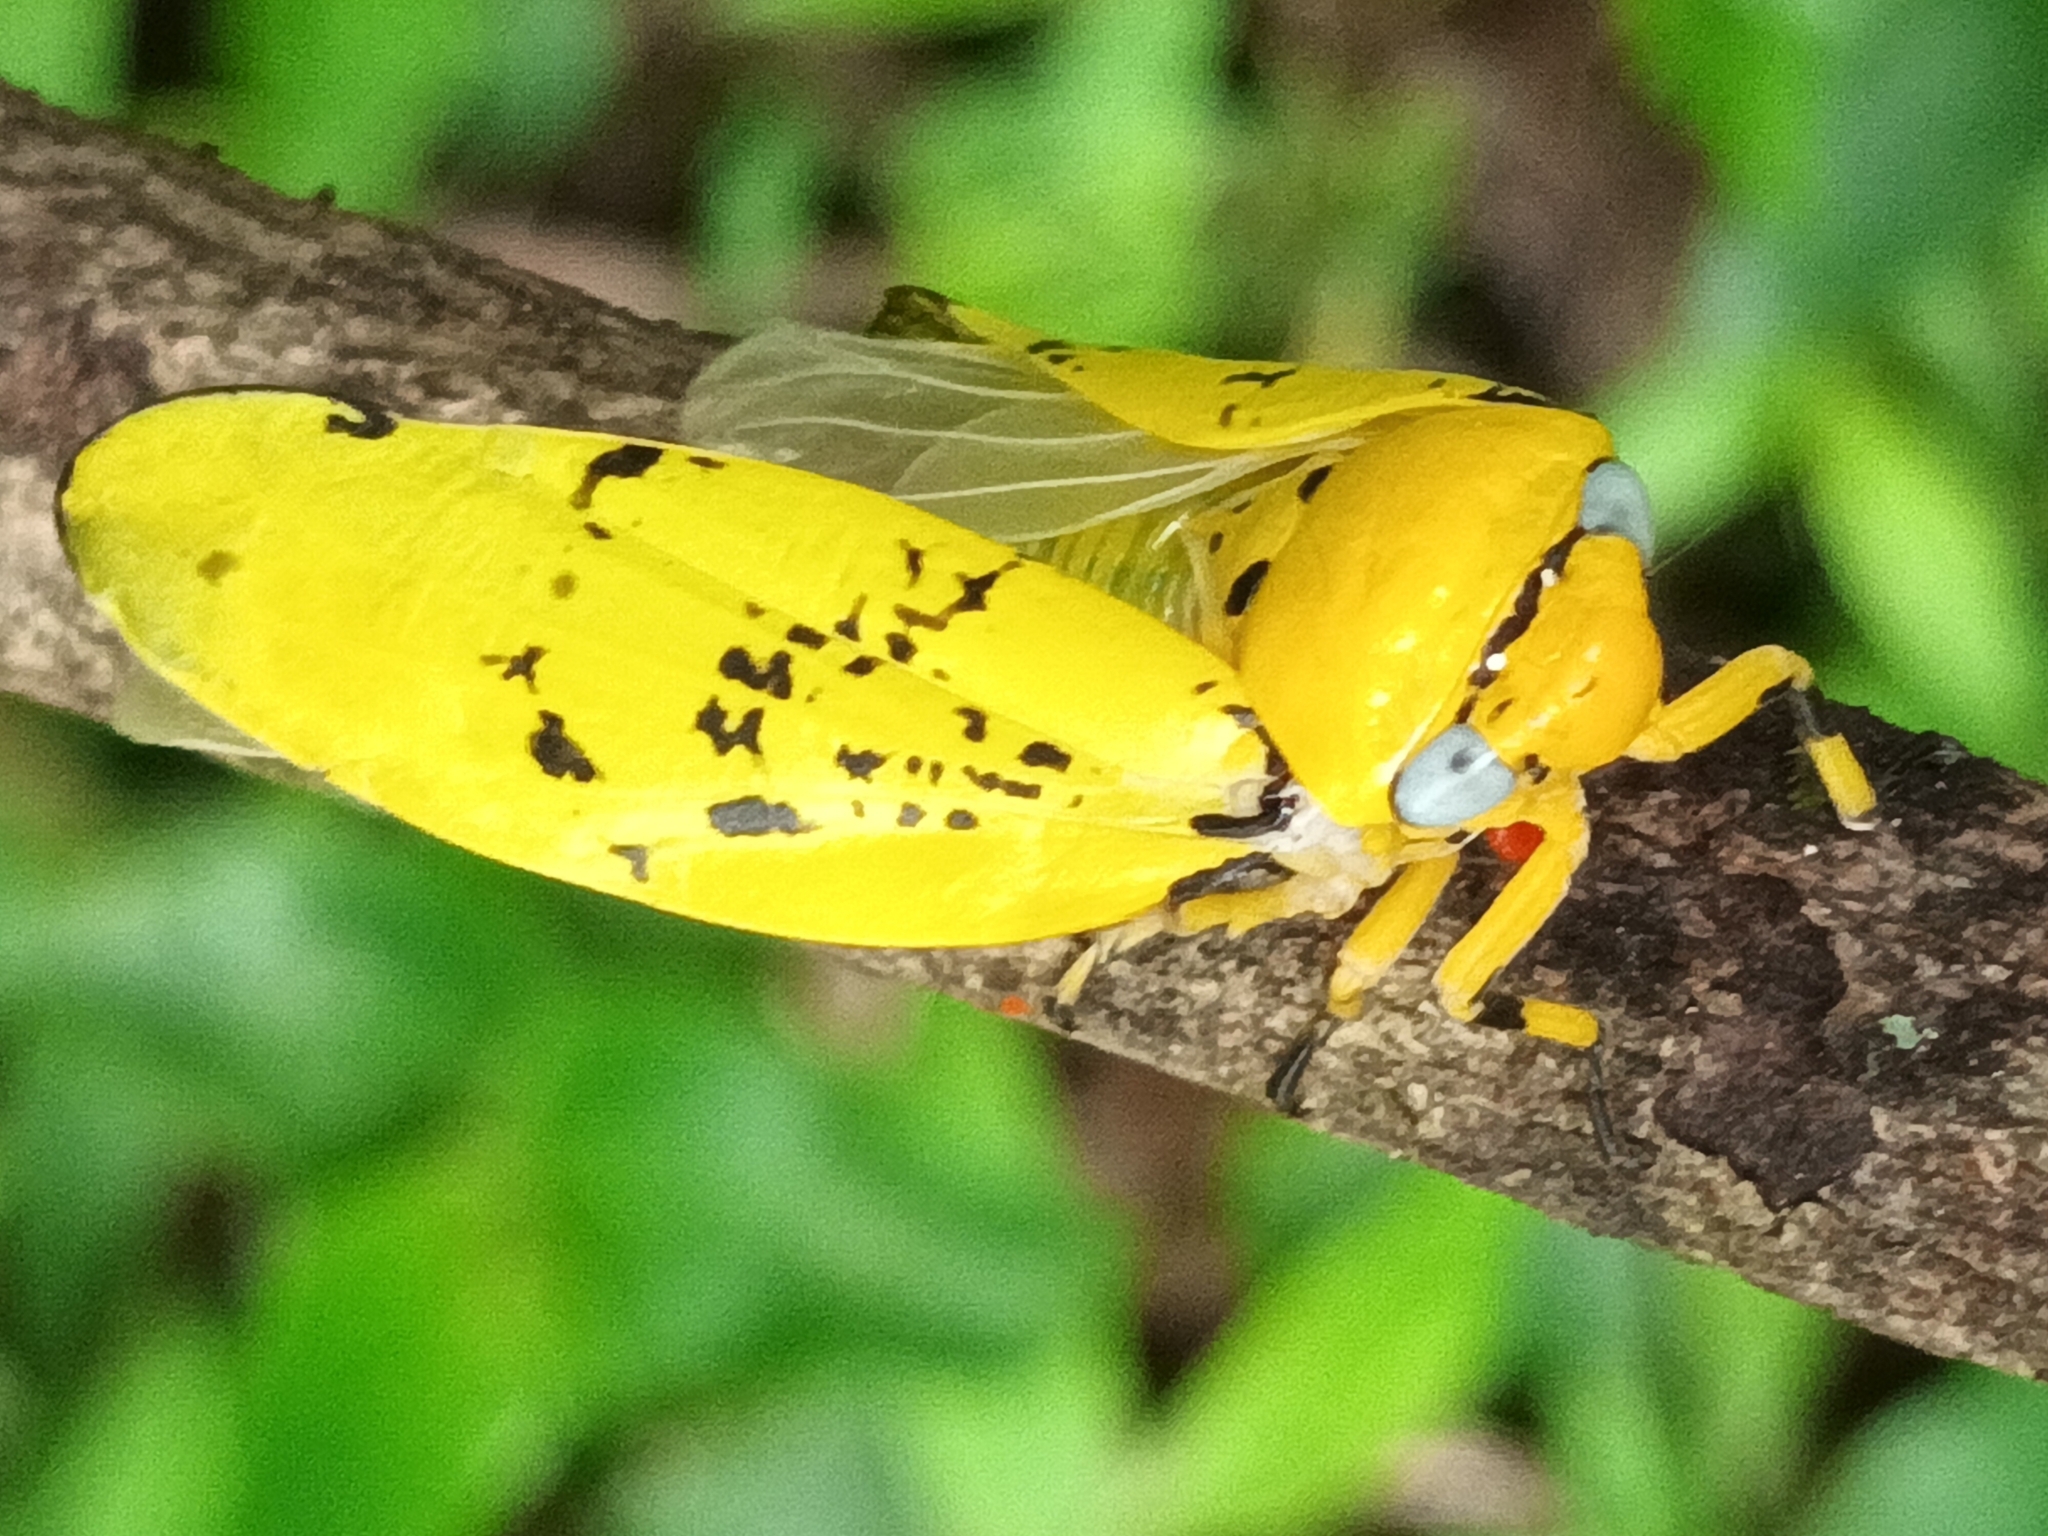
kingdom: Animalia
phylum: Arthropoda
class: Insecta
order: Hemiptera
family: Aphrophoridae
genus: Ptyelus
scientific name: Ptyelus flavescens
